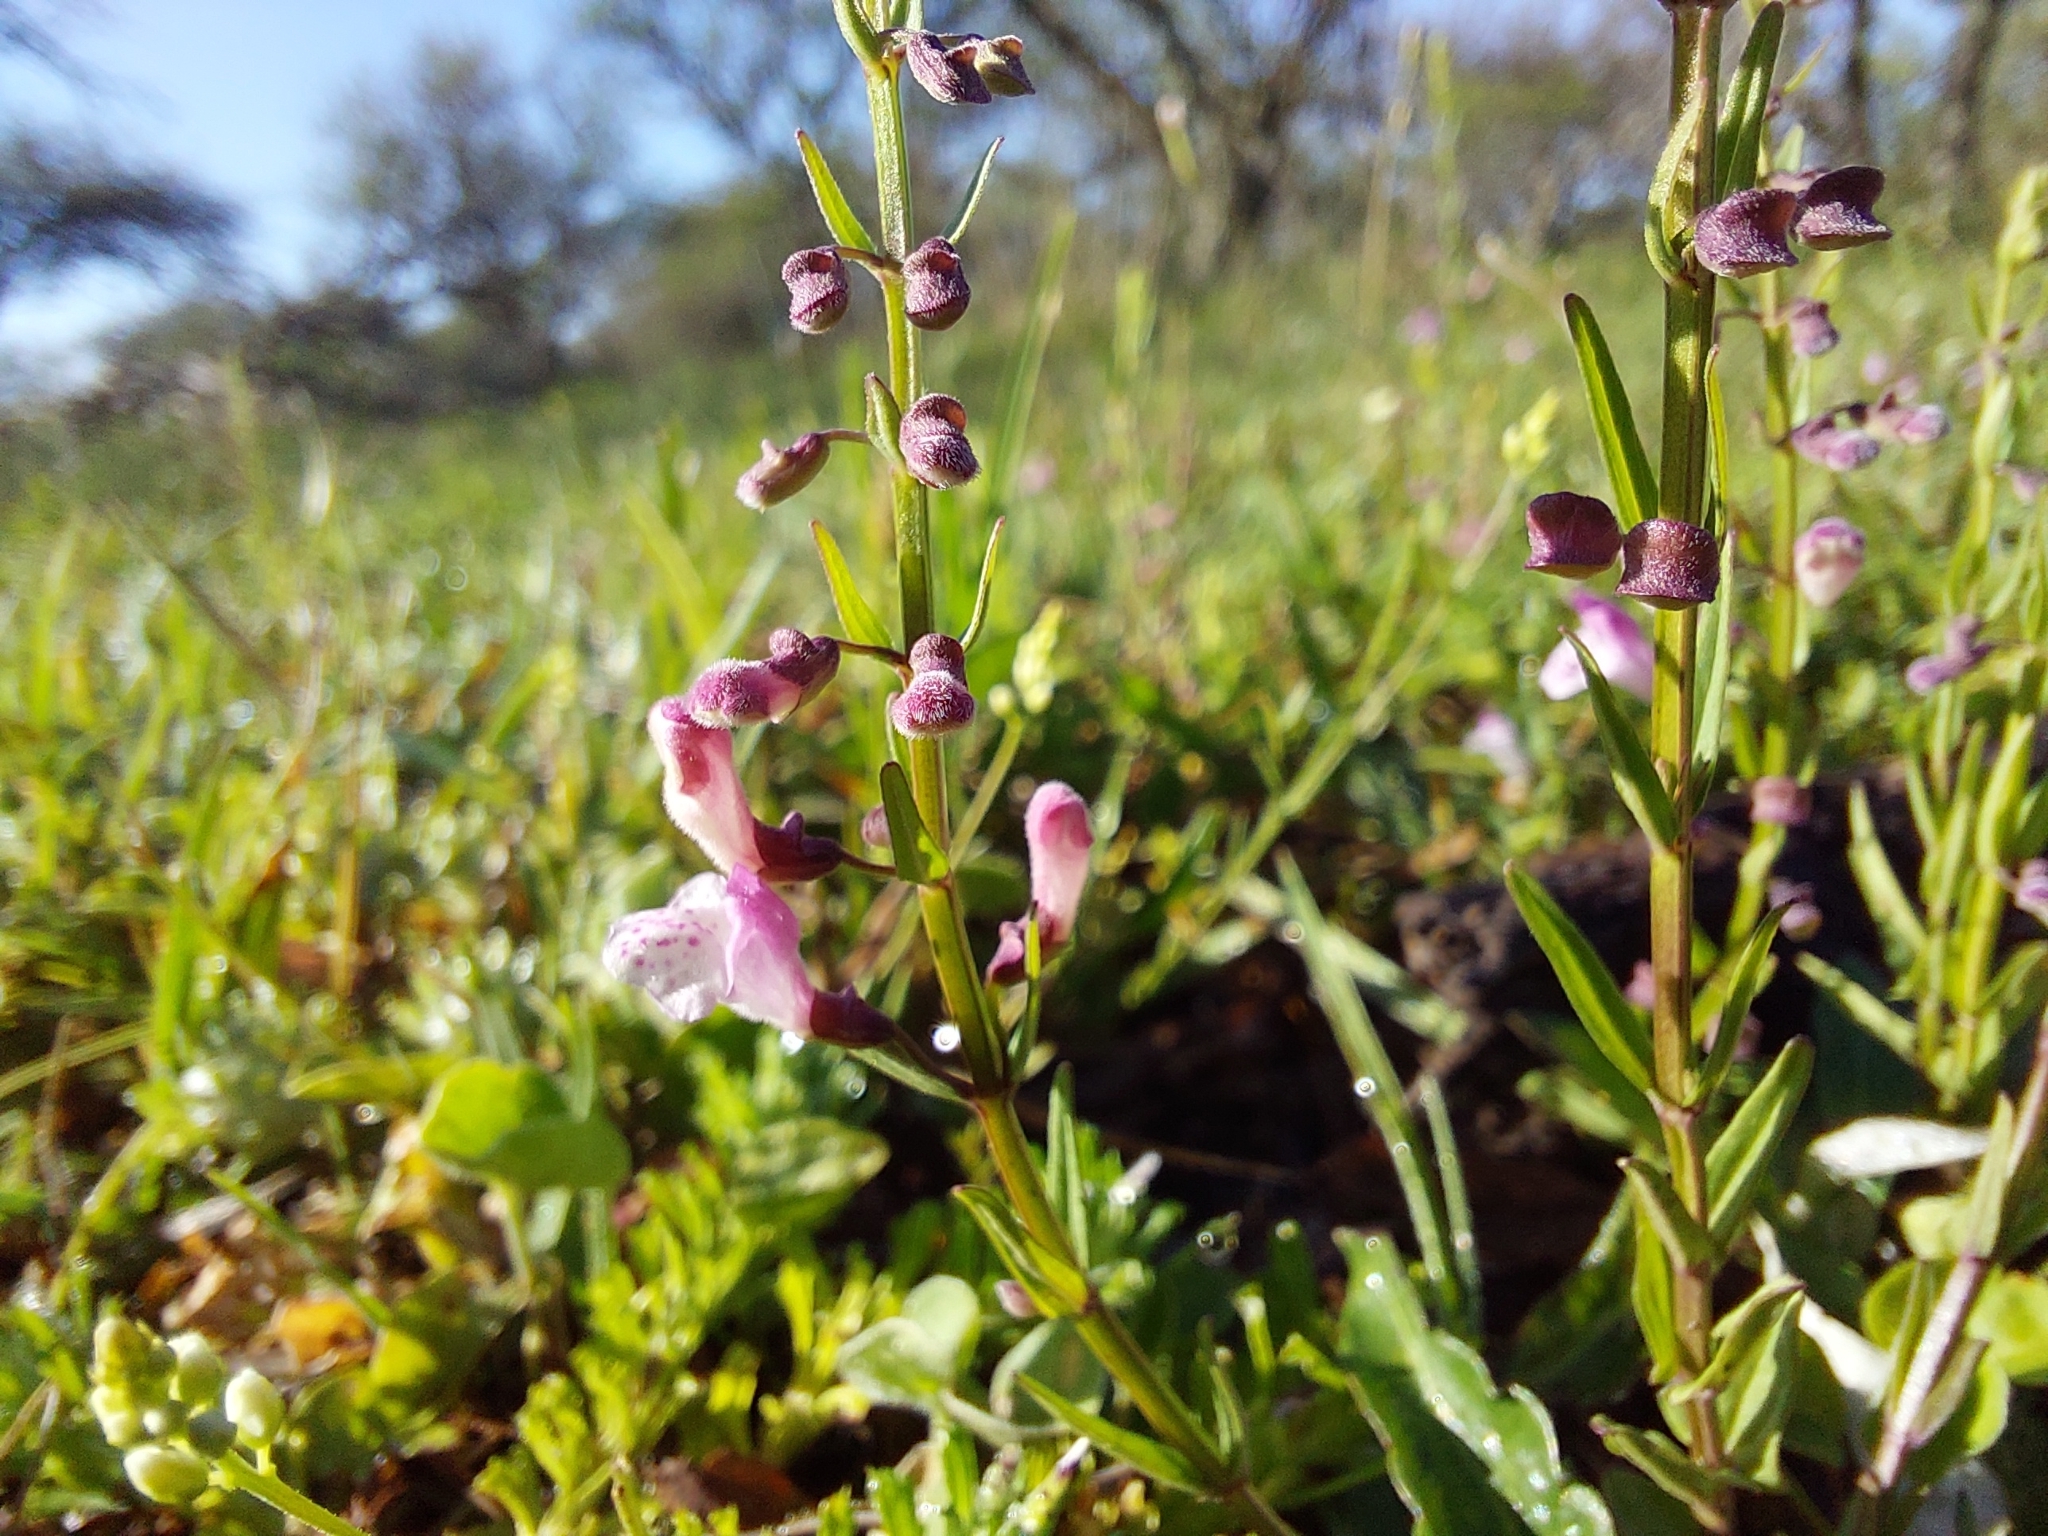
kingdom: Plantae
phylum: Tracheophyta
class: Magnoliopsida
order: Lamiales
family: Lamiaceae
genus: Scutellaria
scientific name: Scutellaria racemosa
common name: South american skullcap
